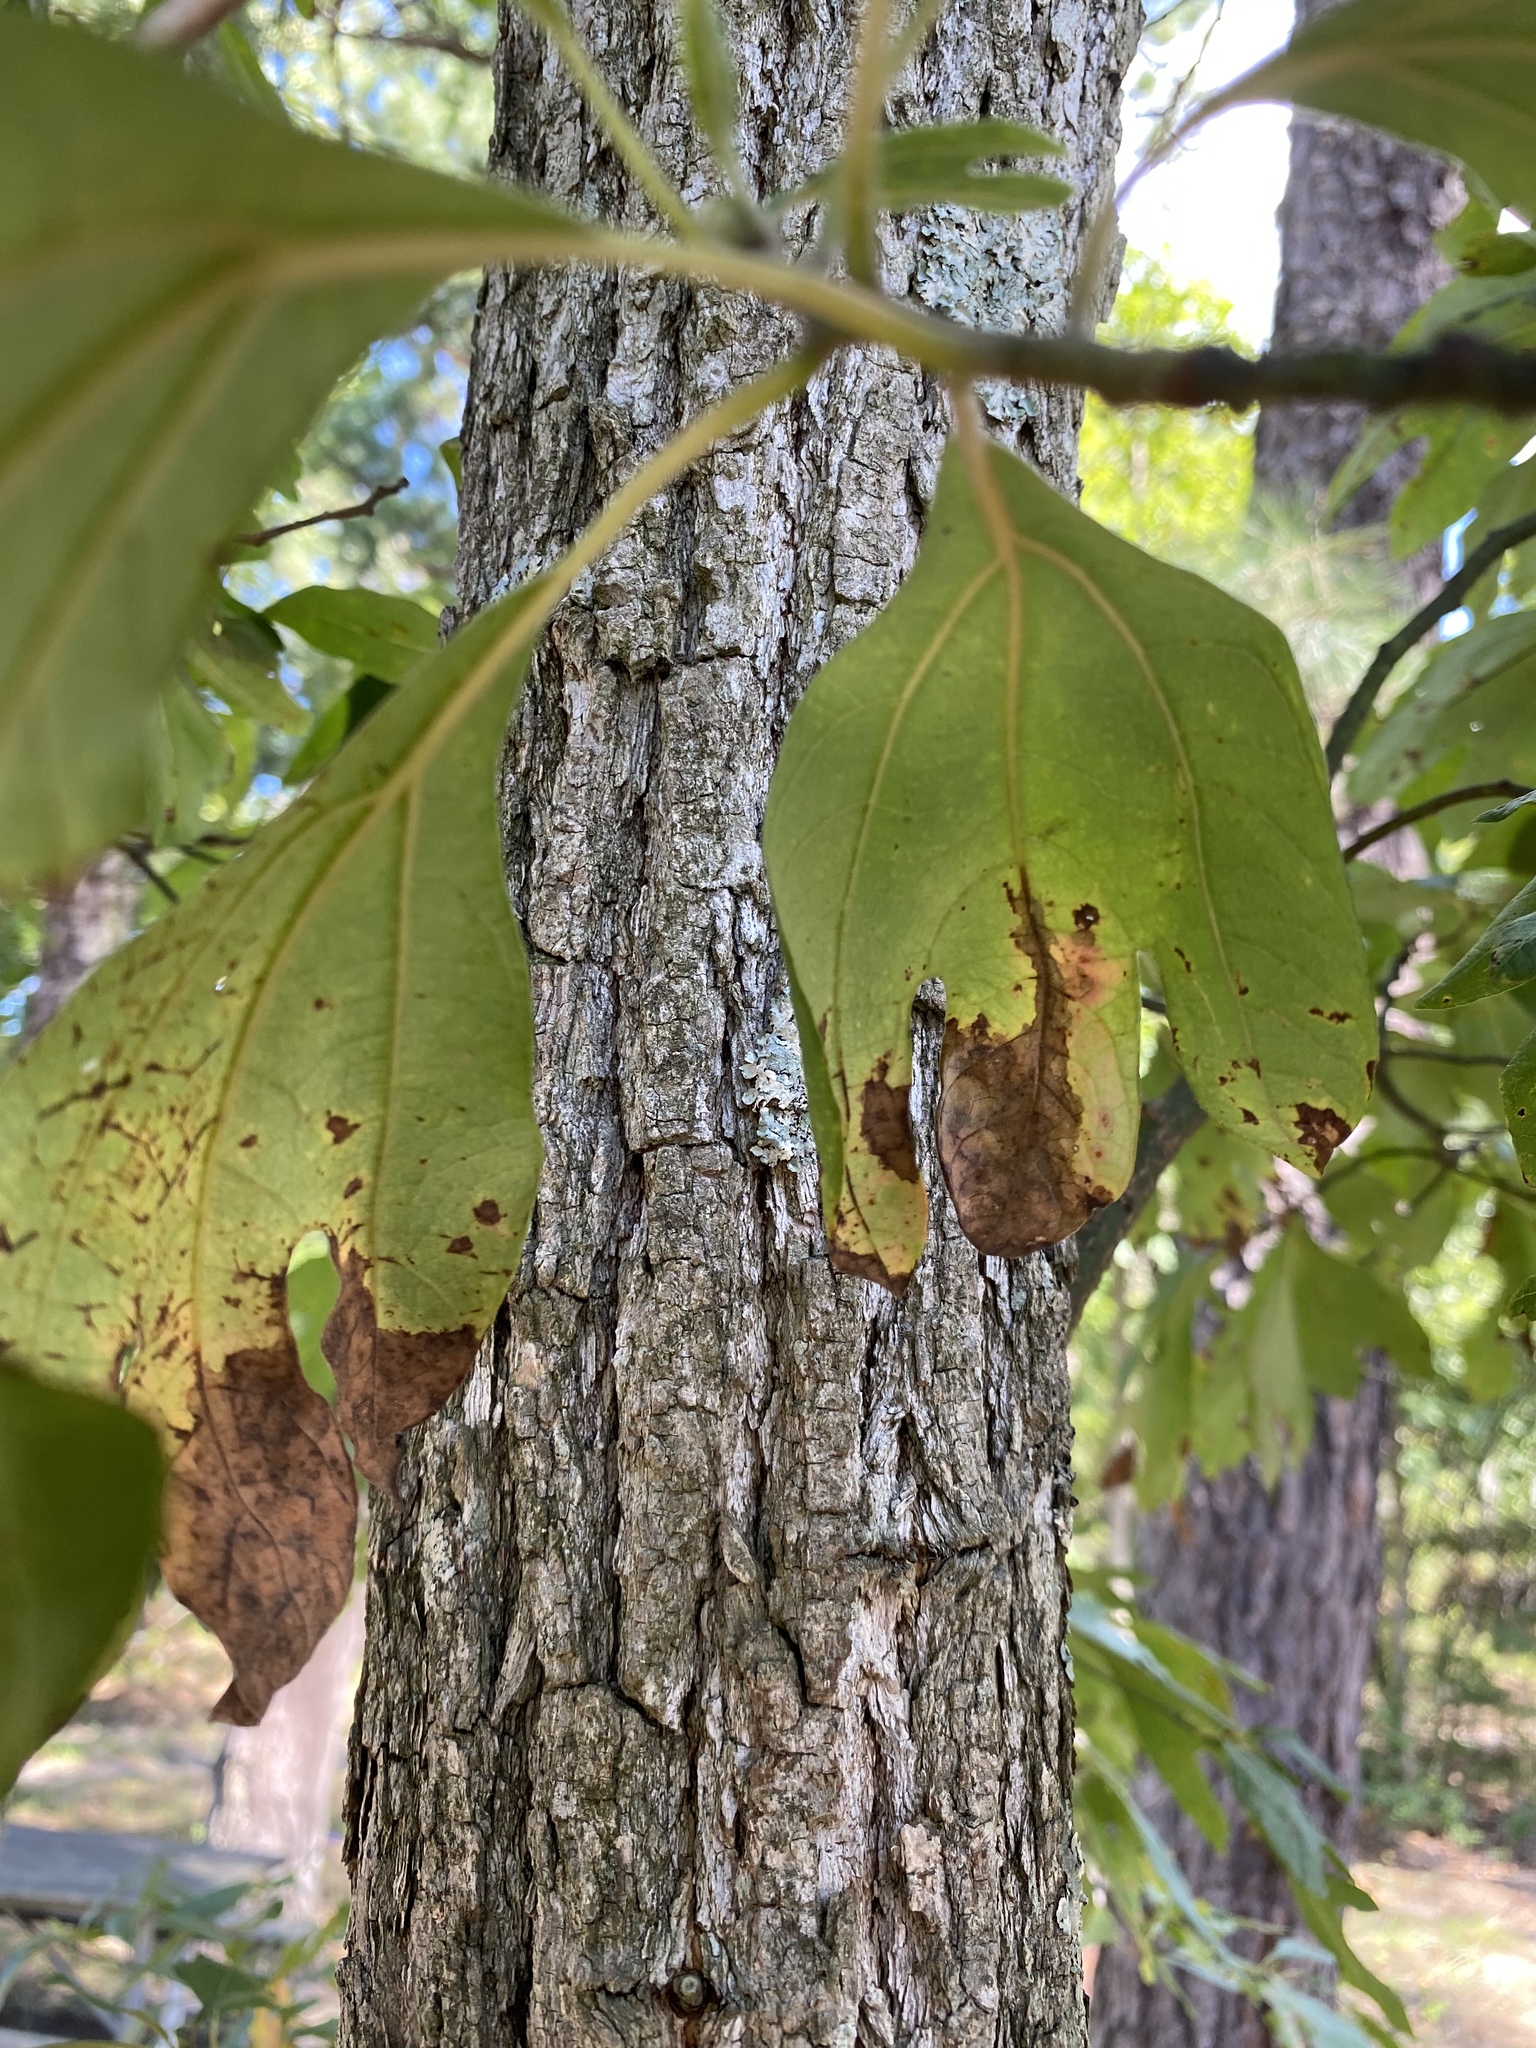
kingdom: Plantae
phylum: Tracheophyta
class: Magnoliopsida
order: Laurales
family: Lauraceae
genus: Sassafras
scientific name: Sassafras albidum
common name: Sassafras
